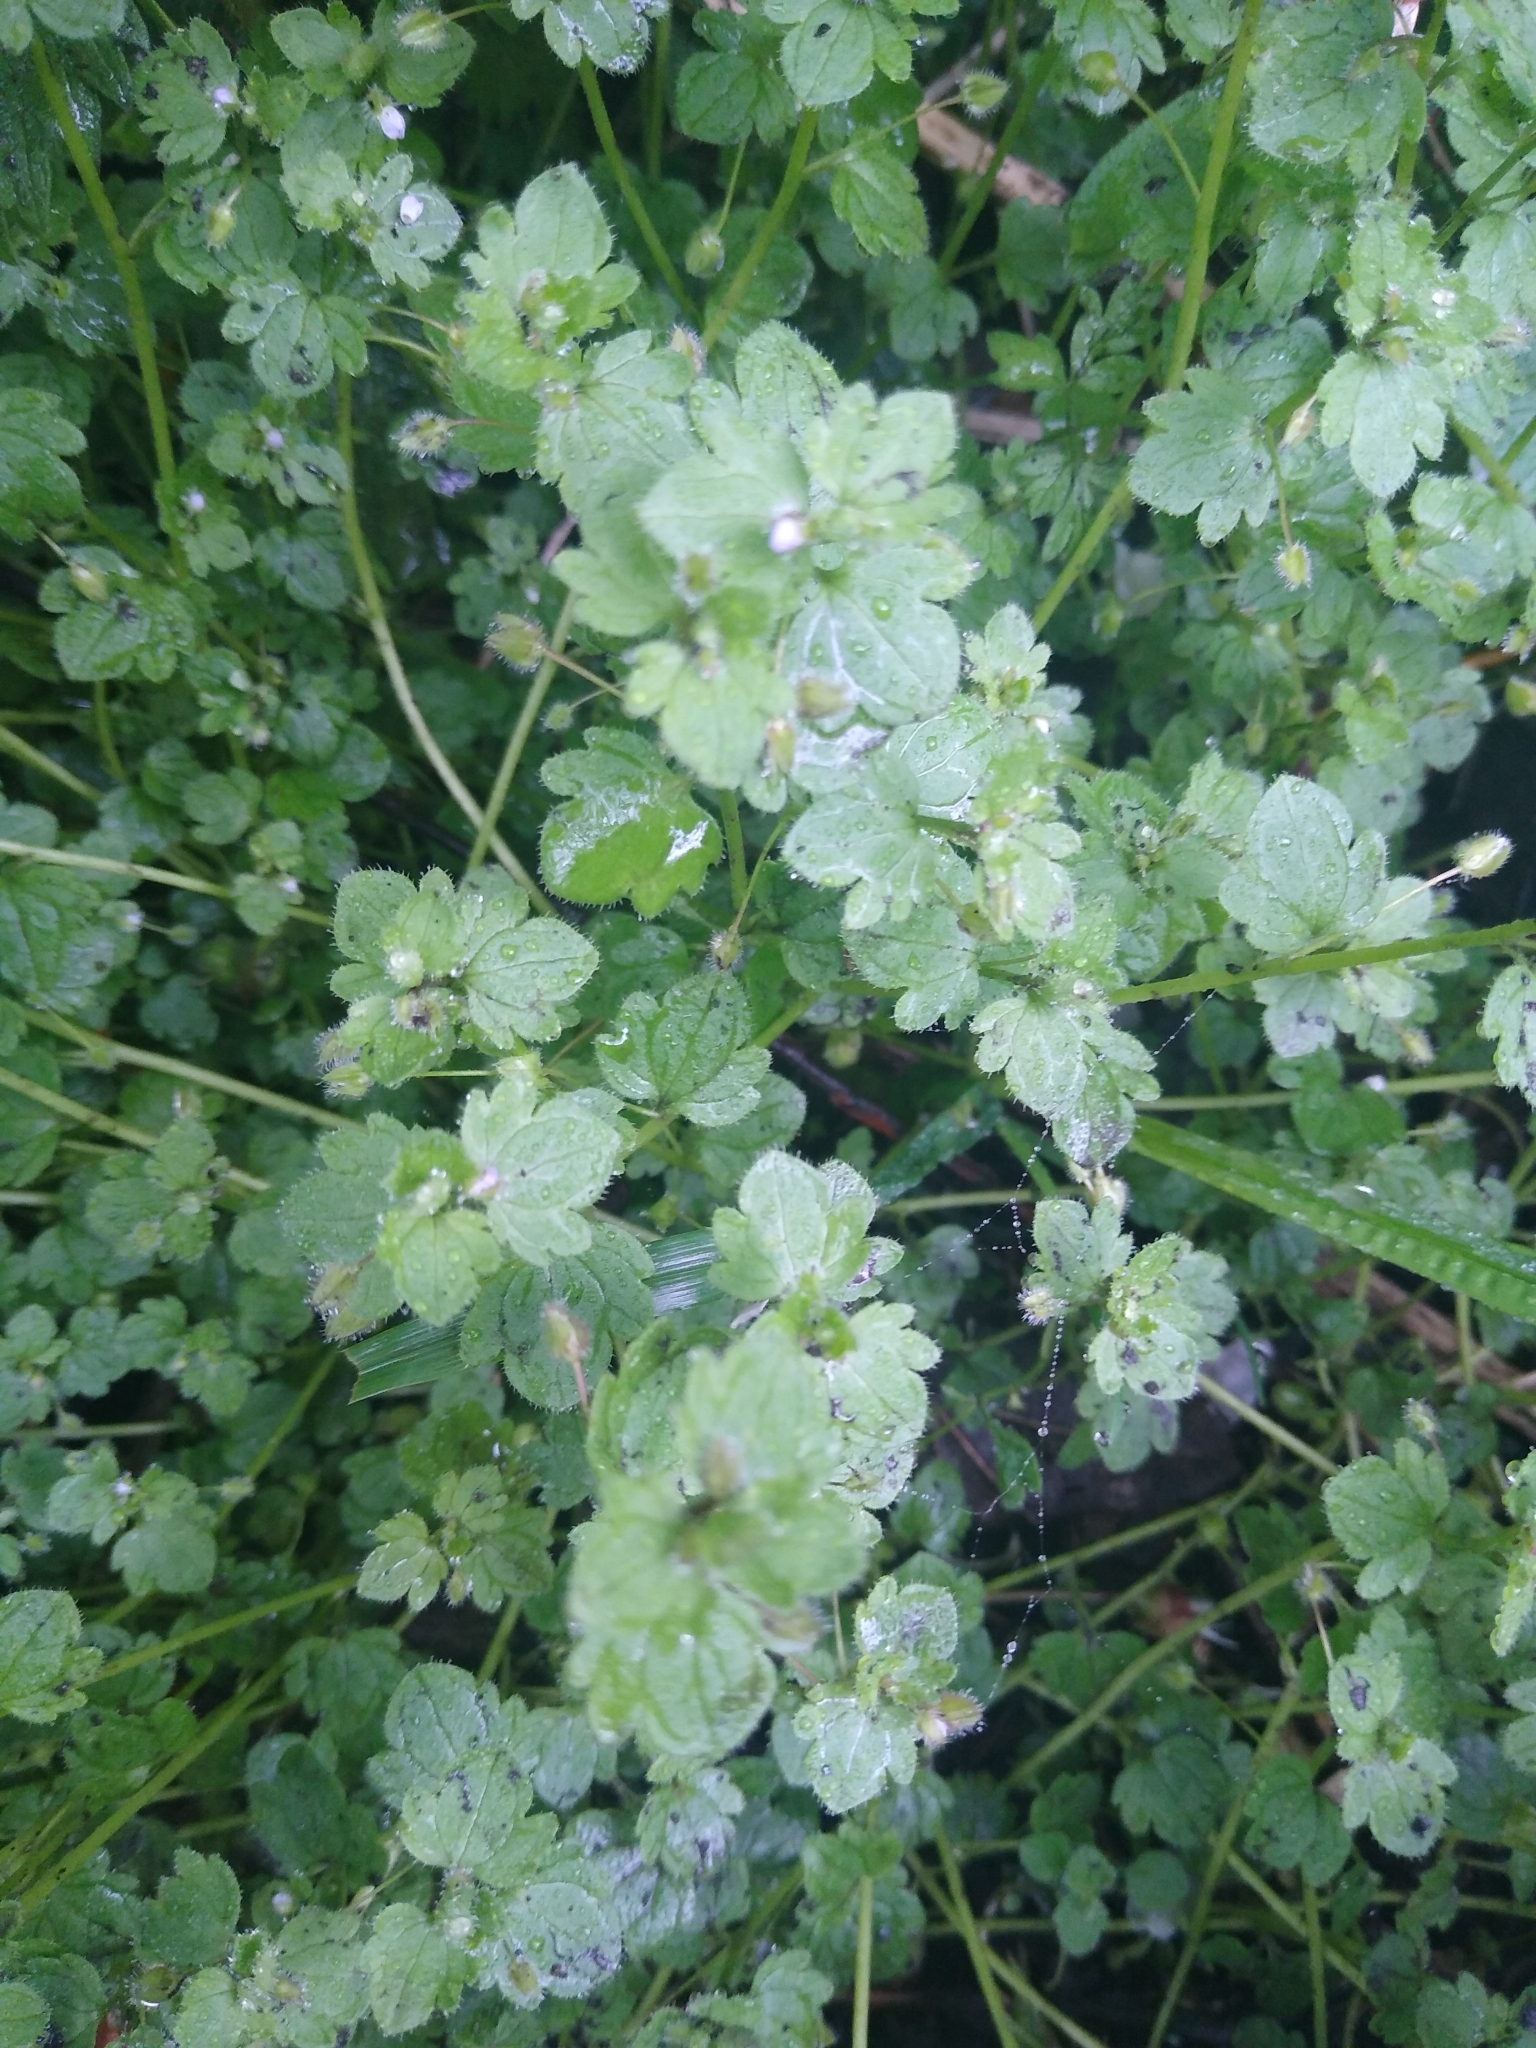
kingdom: Plantae
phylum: Tracheophyta
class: Magnoliopsida
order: Lamiales
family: Plantaginaceae
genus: Veronica
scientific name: Veronica hederifolia
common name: Ivy-leaved speedwell
